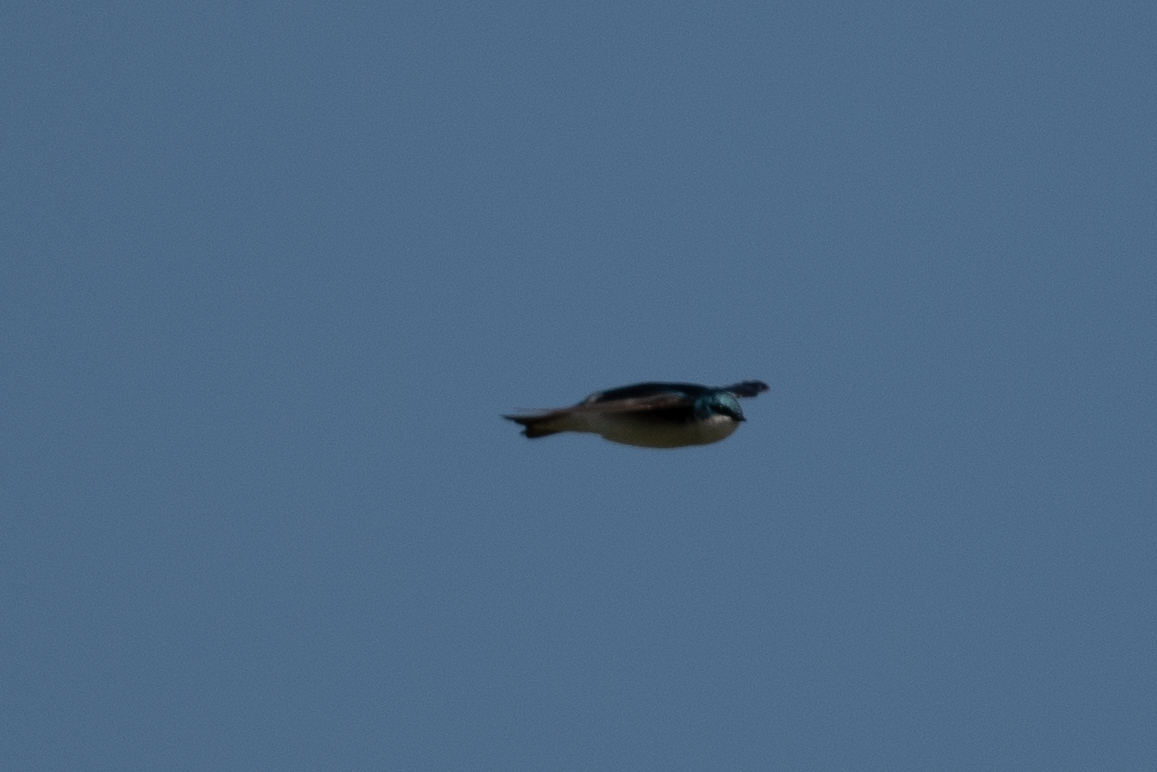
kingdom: Animalia
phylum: Chordata
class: Aves
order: Passeriformes
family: Hirundinidae
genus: Tachycineta
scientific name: Tachycineta bicolor
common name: Tree swallow
